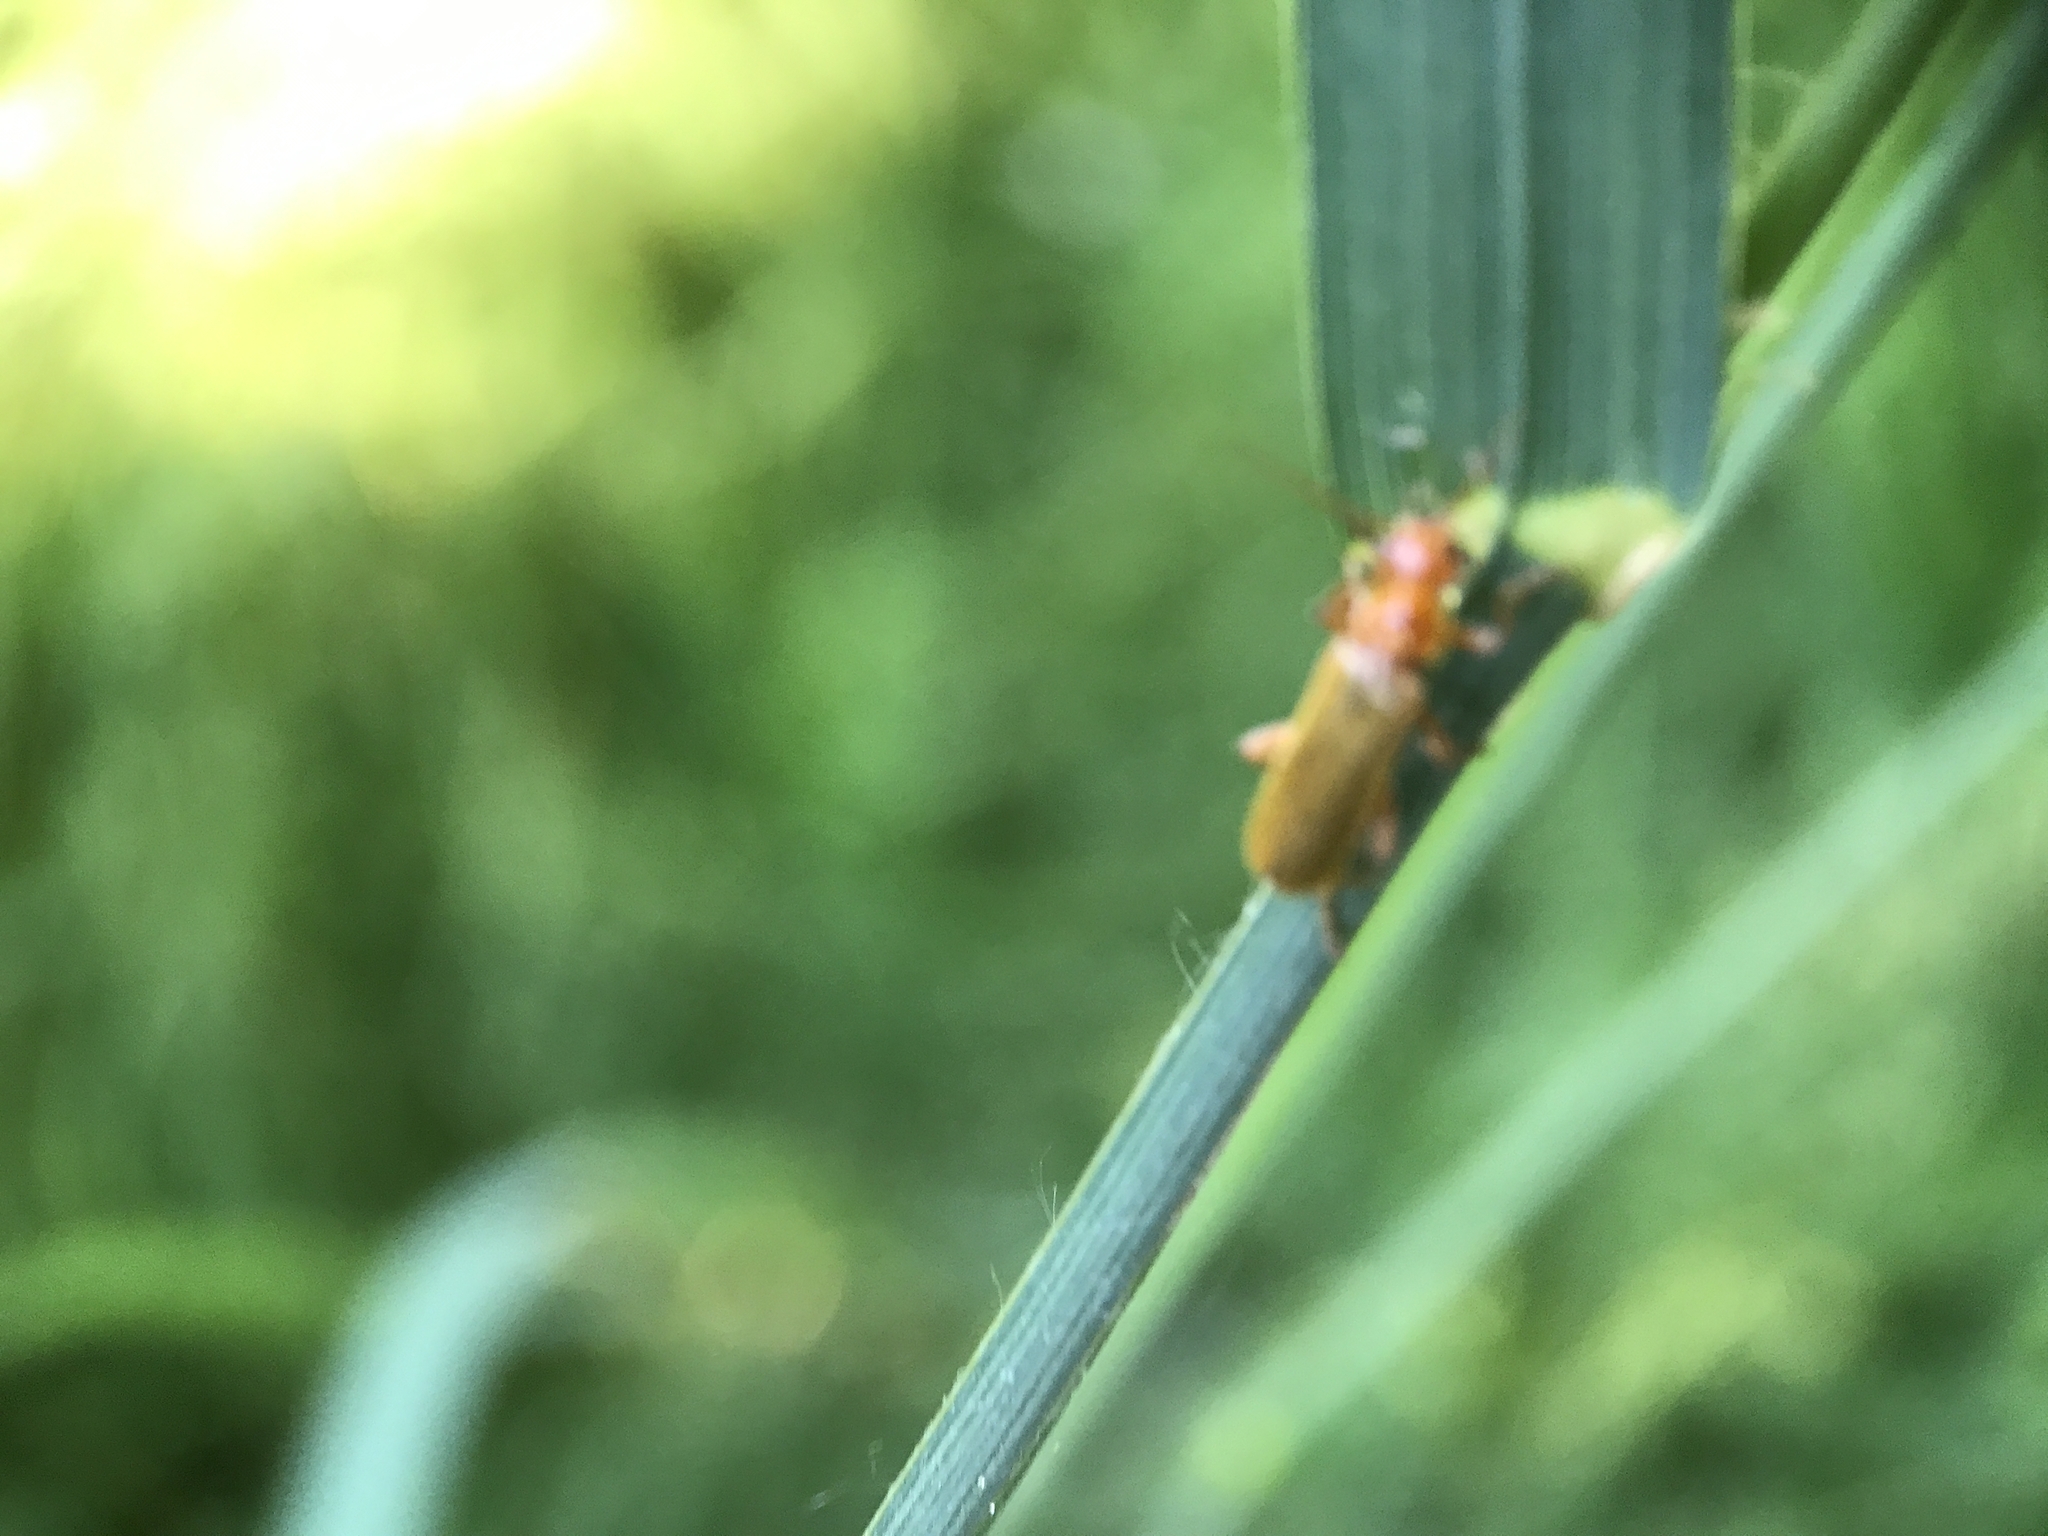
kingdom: Animalia
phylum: Arthropoda
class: Insecta
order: Coleoptera
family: Cantharidae
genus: Cantharis
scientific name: Cantharis cryptica
